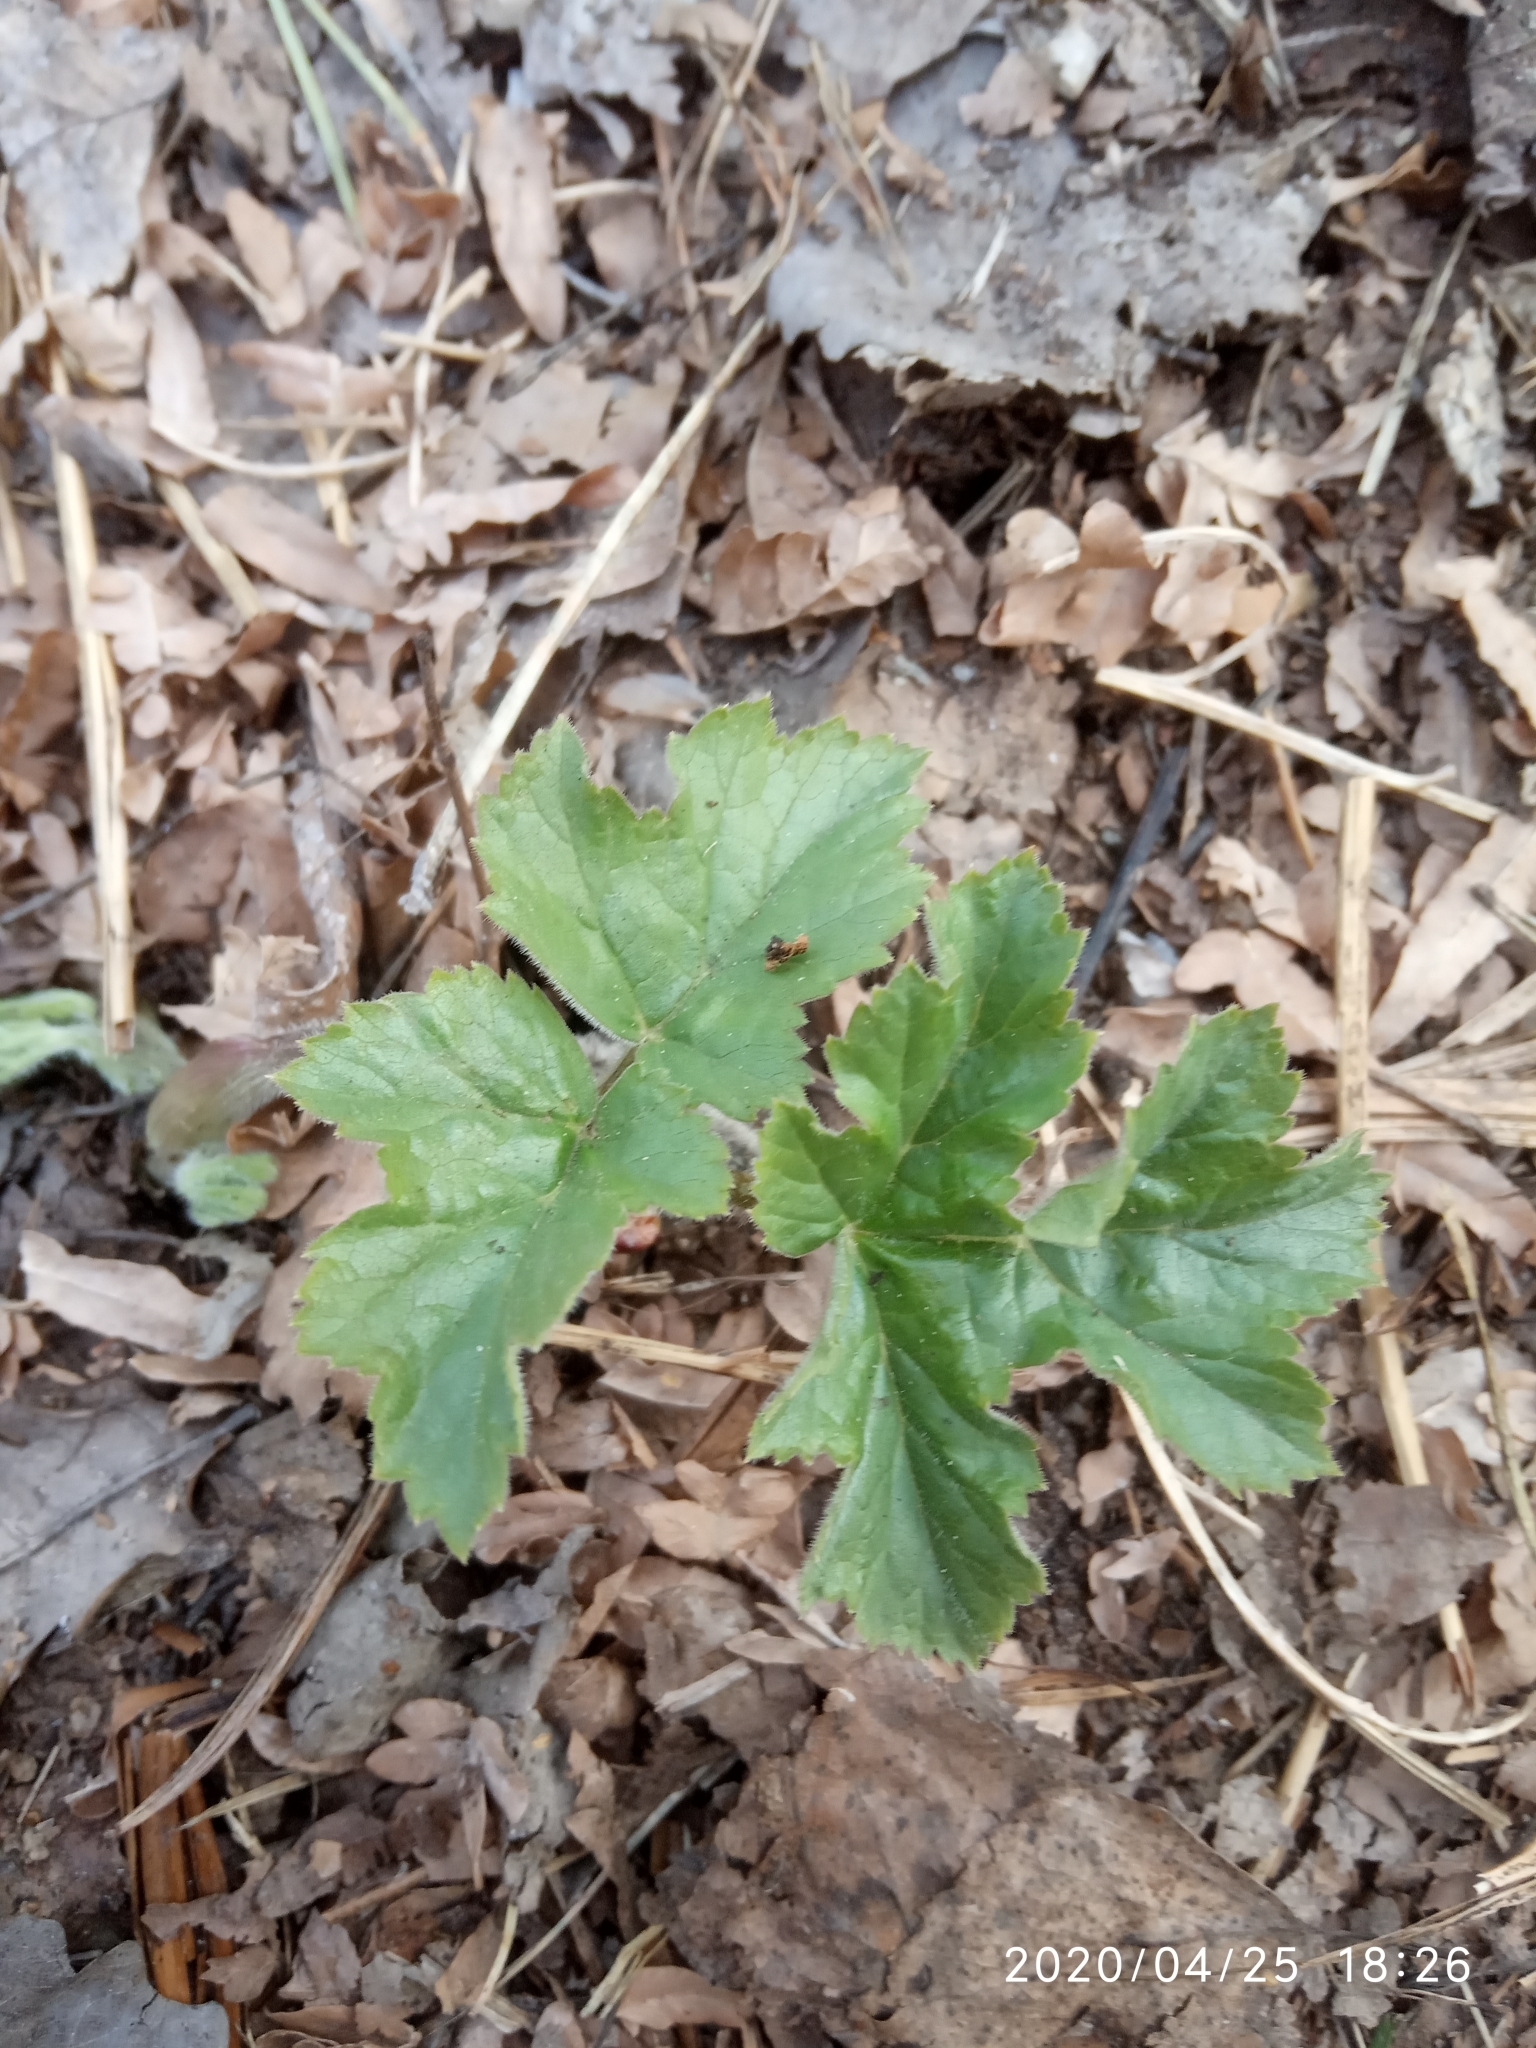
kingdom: Plantae
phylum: Tracheophyta
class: Magnoliopsida
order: Apiales
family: Apiaceae
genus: Heracleum
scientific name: Heracleum sphondylium
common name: Hogweed
